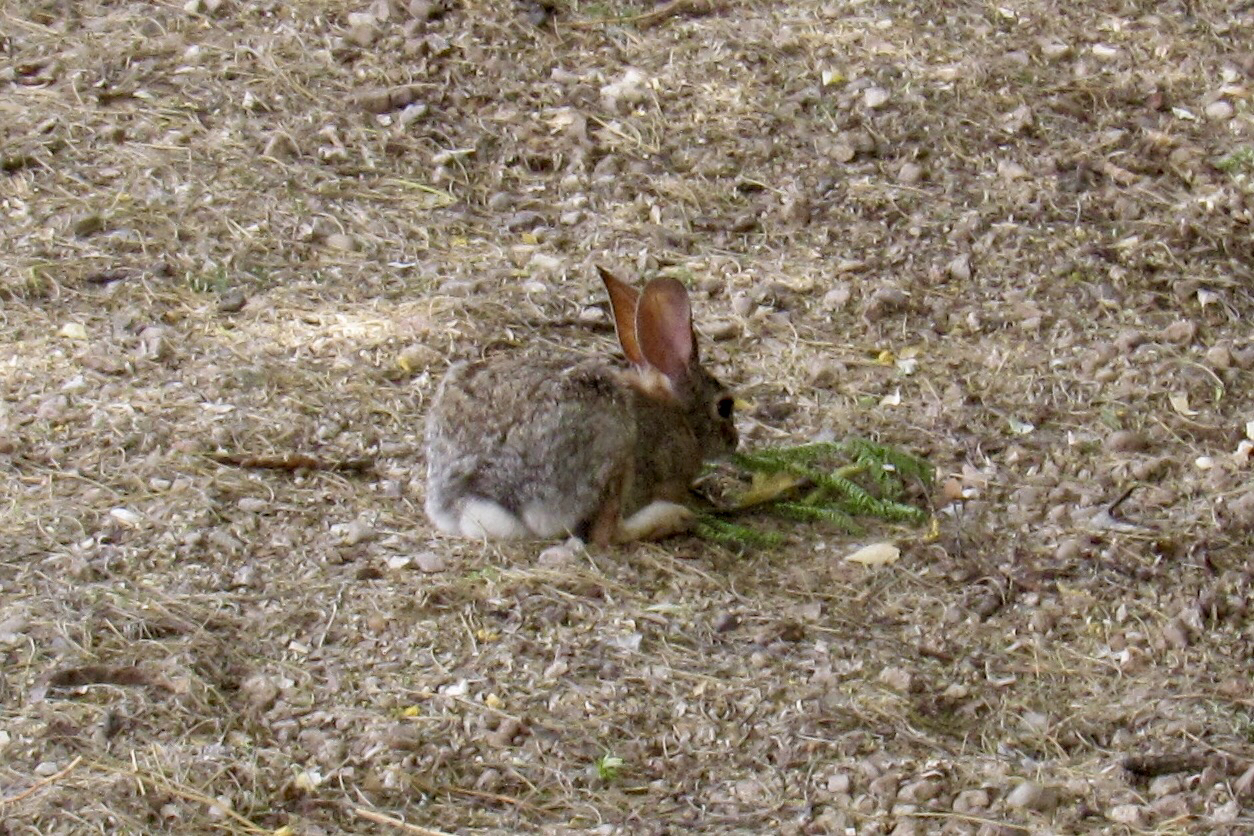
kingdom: Animalia
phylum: Chordata
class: Mammalia
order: Lagomorpha
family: Leporidae
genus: Sylvilagus
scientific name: Sylvilagus audubonii
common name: Desert cottontail
